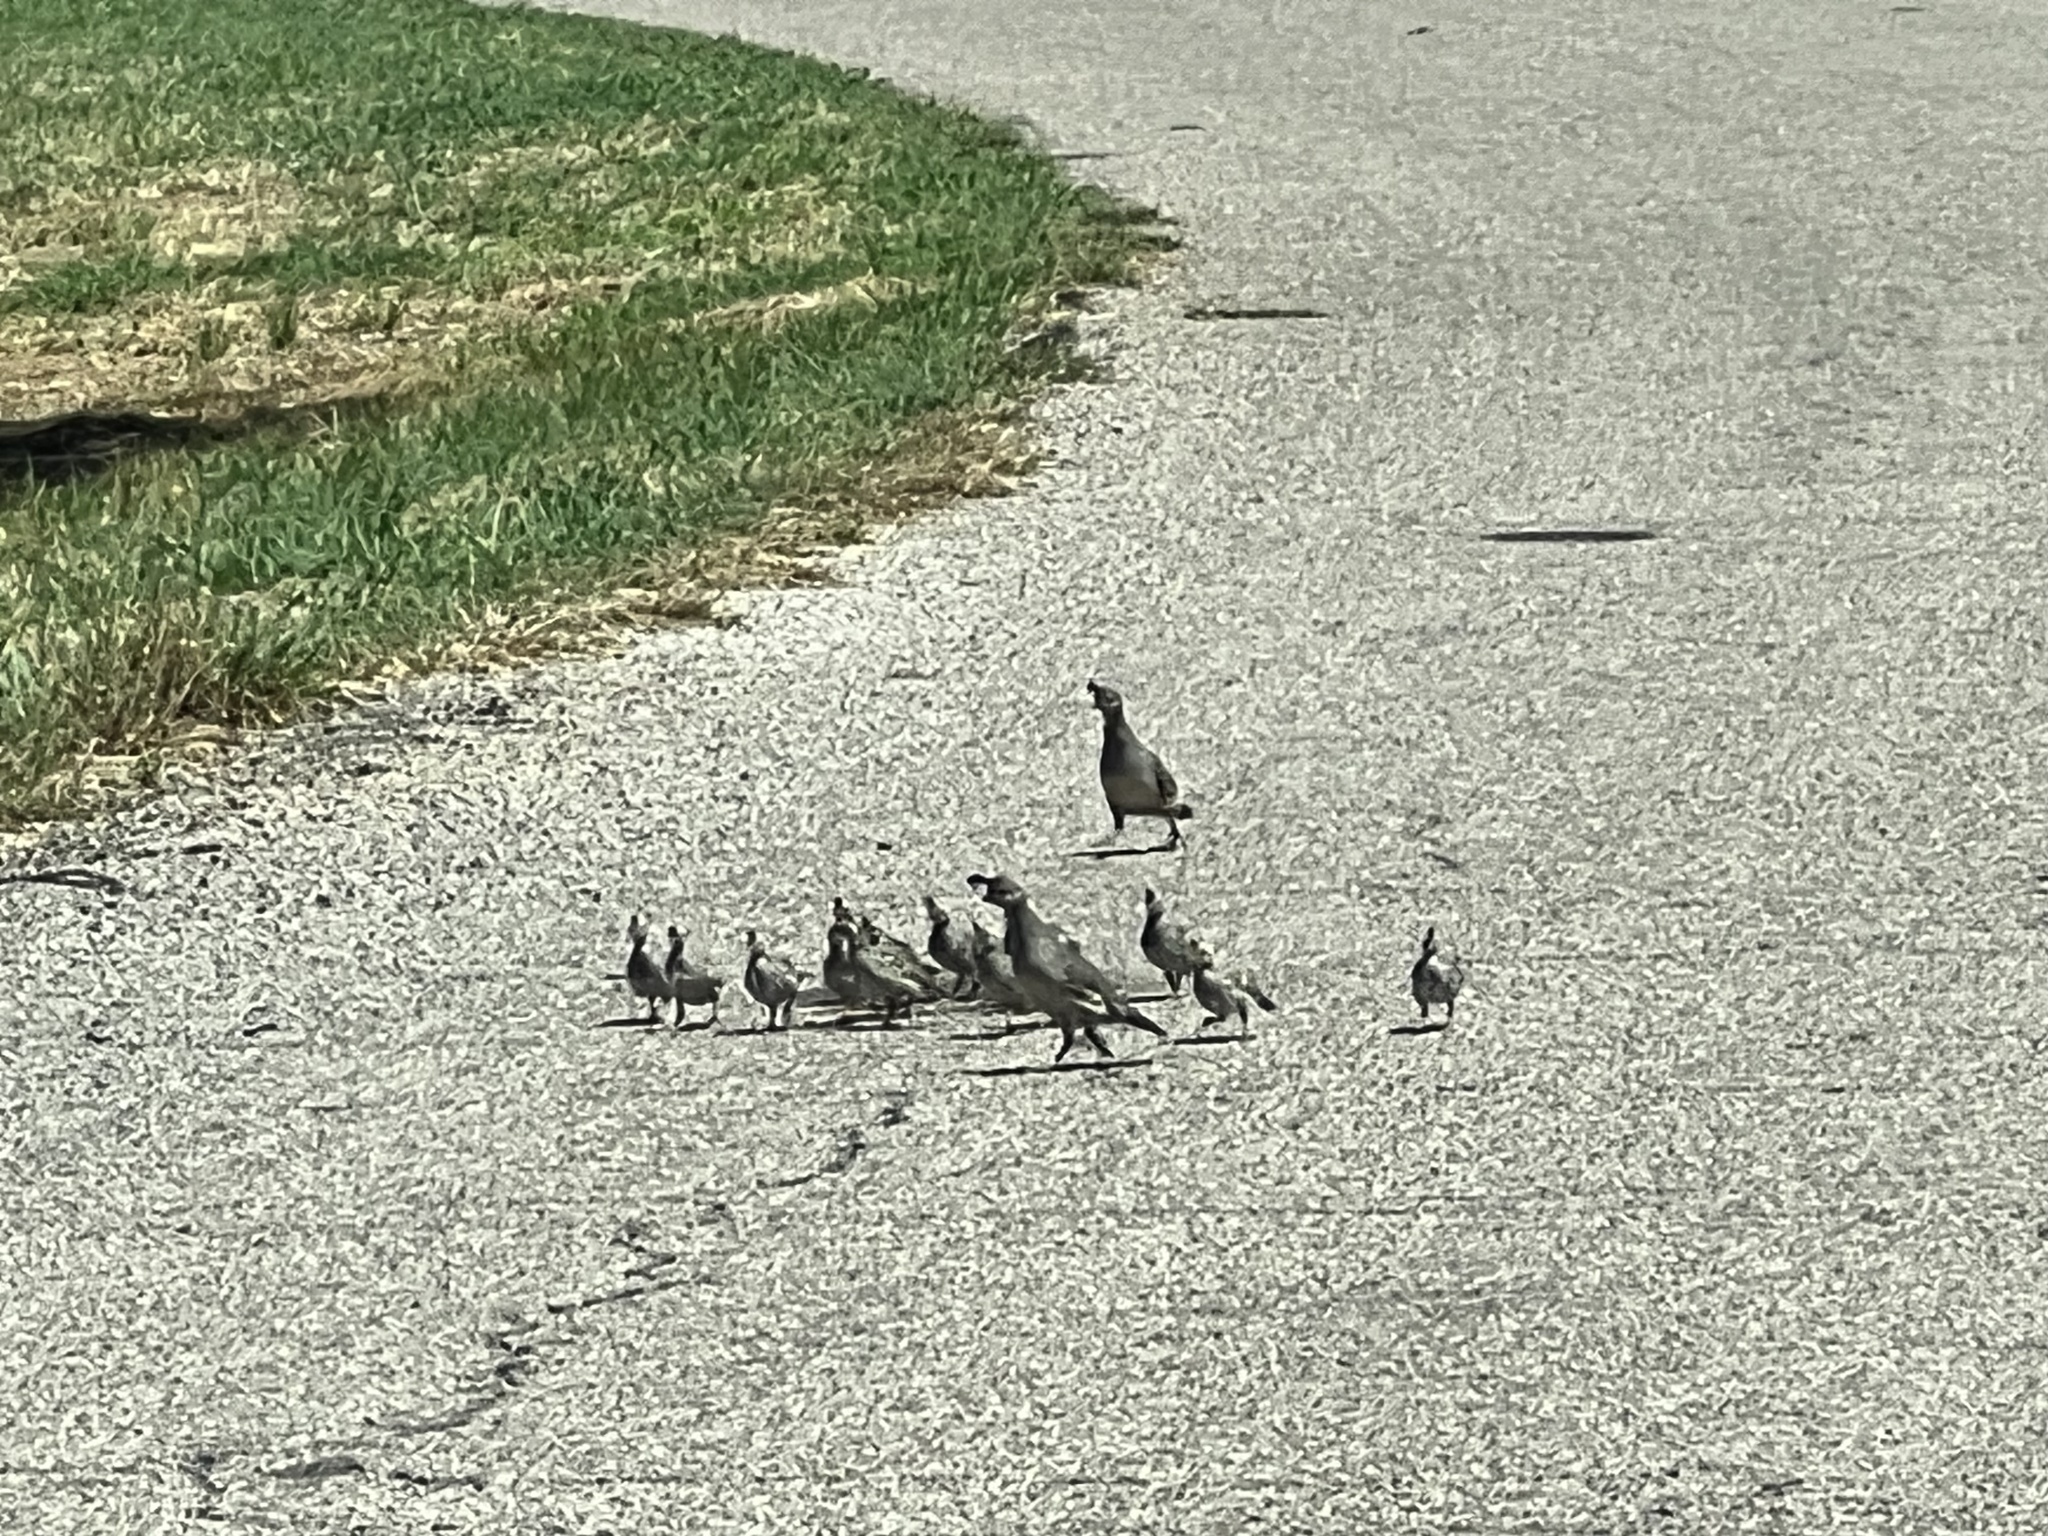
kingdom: Animalia
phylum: Chordata
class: Aves
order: Galliformes
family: Odontophoridae
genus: Callipepla
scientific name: Callipepla gambelii
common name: Gambel's quail
